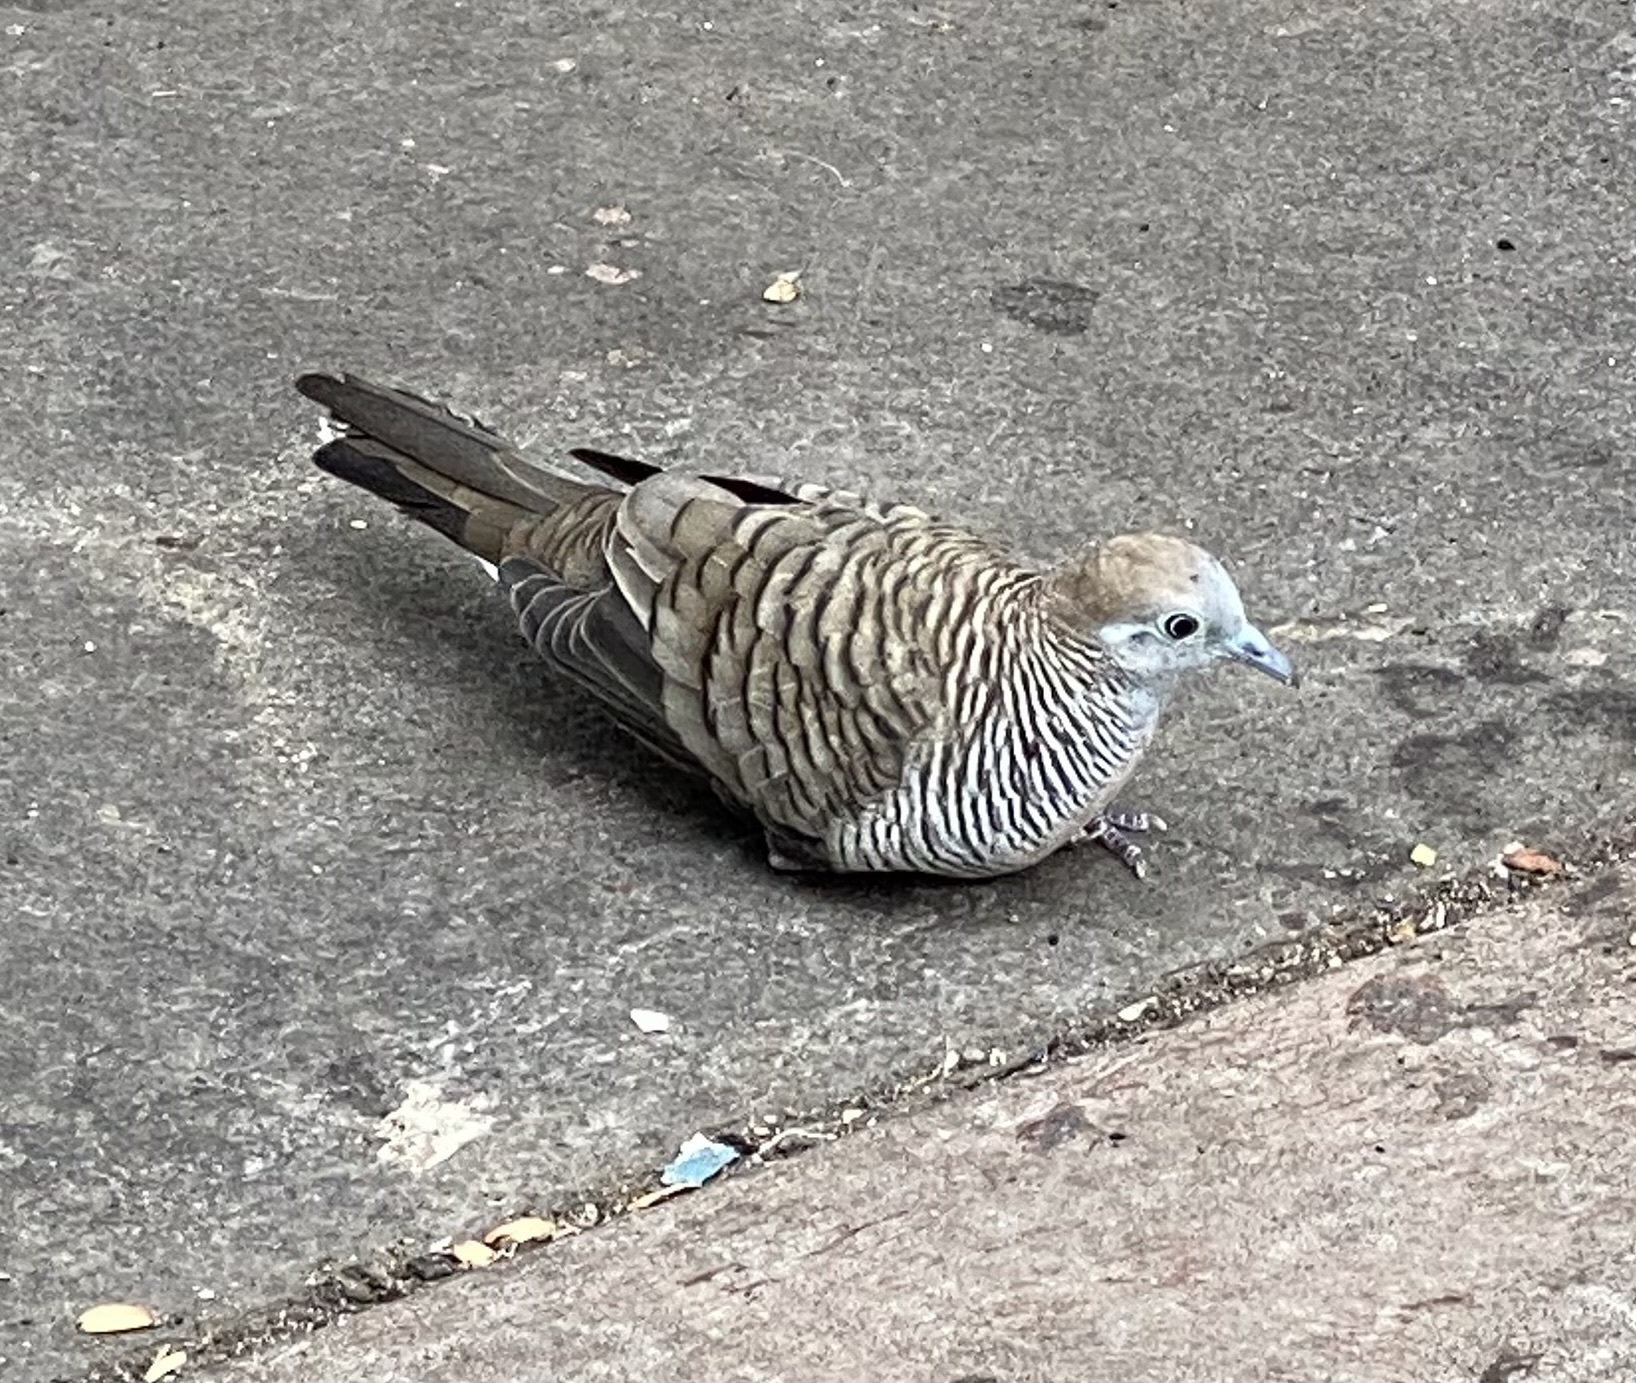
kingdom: Animalia
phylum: Chordata
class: Aves
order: Columbiformes
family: Columbidae
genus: Geopelia
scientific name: Geopelia striata
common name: Zebra dove
